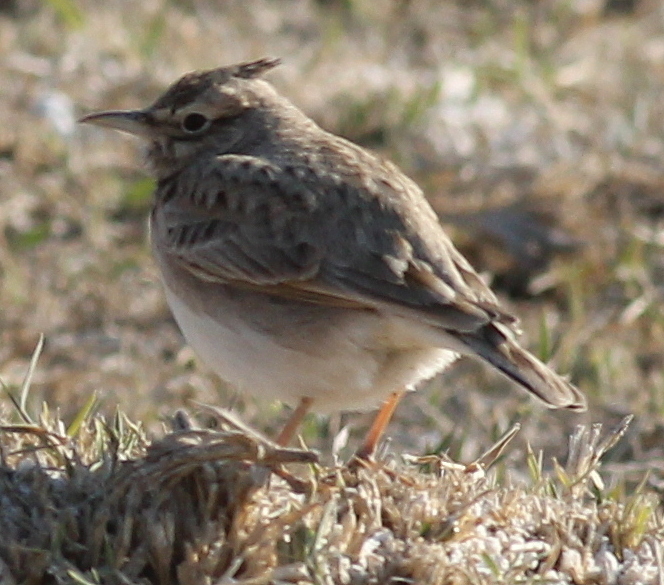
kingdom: Animalia
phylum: Chordata
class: Aves
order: Passeriformes
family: Alaudidae
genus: Galerida
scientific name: Galerida cristata
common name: Crested lark
